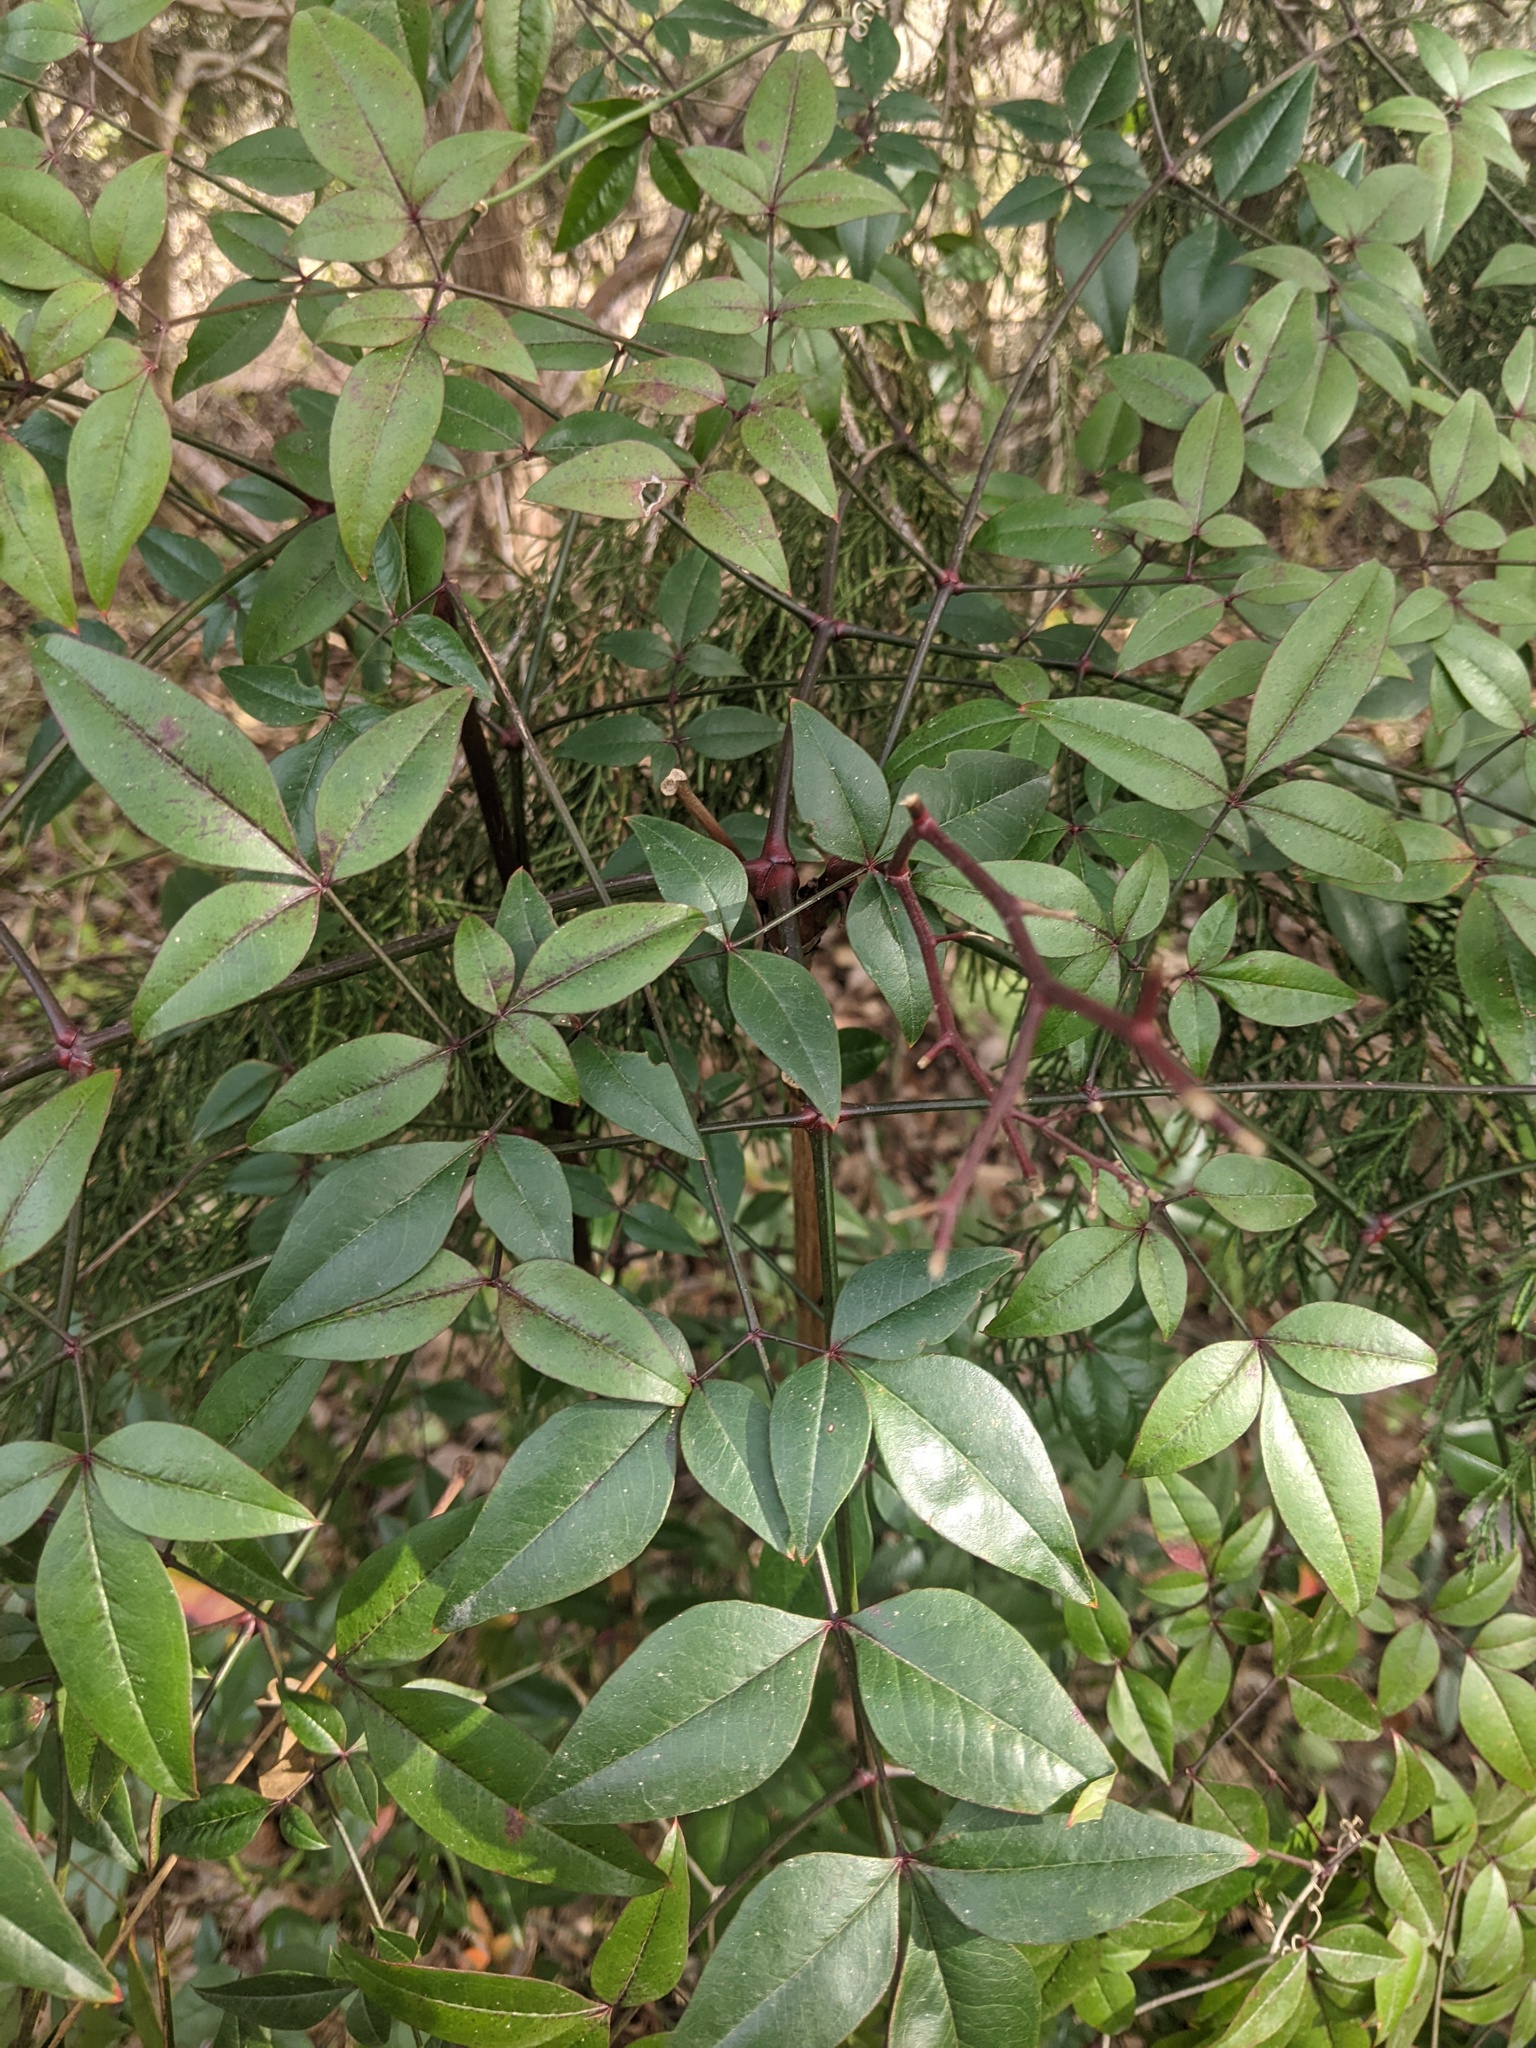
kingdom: Plantae
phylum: Tracheophyta
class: Magnoliopsida
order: Ranunculales
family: Berberidaceae
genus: Nandina
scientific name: Nandina domestica
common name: Sacred bamboo
